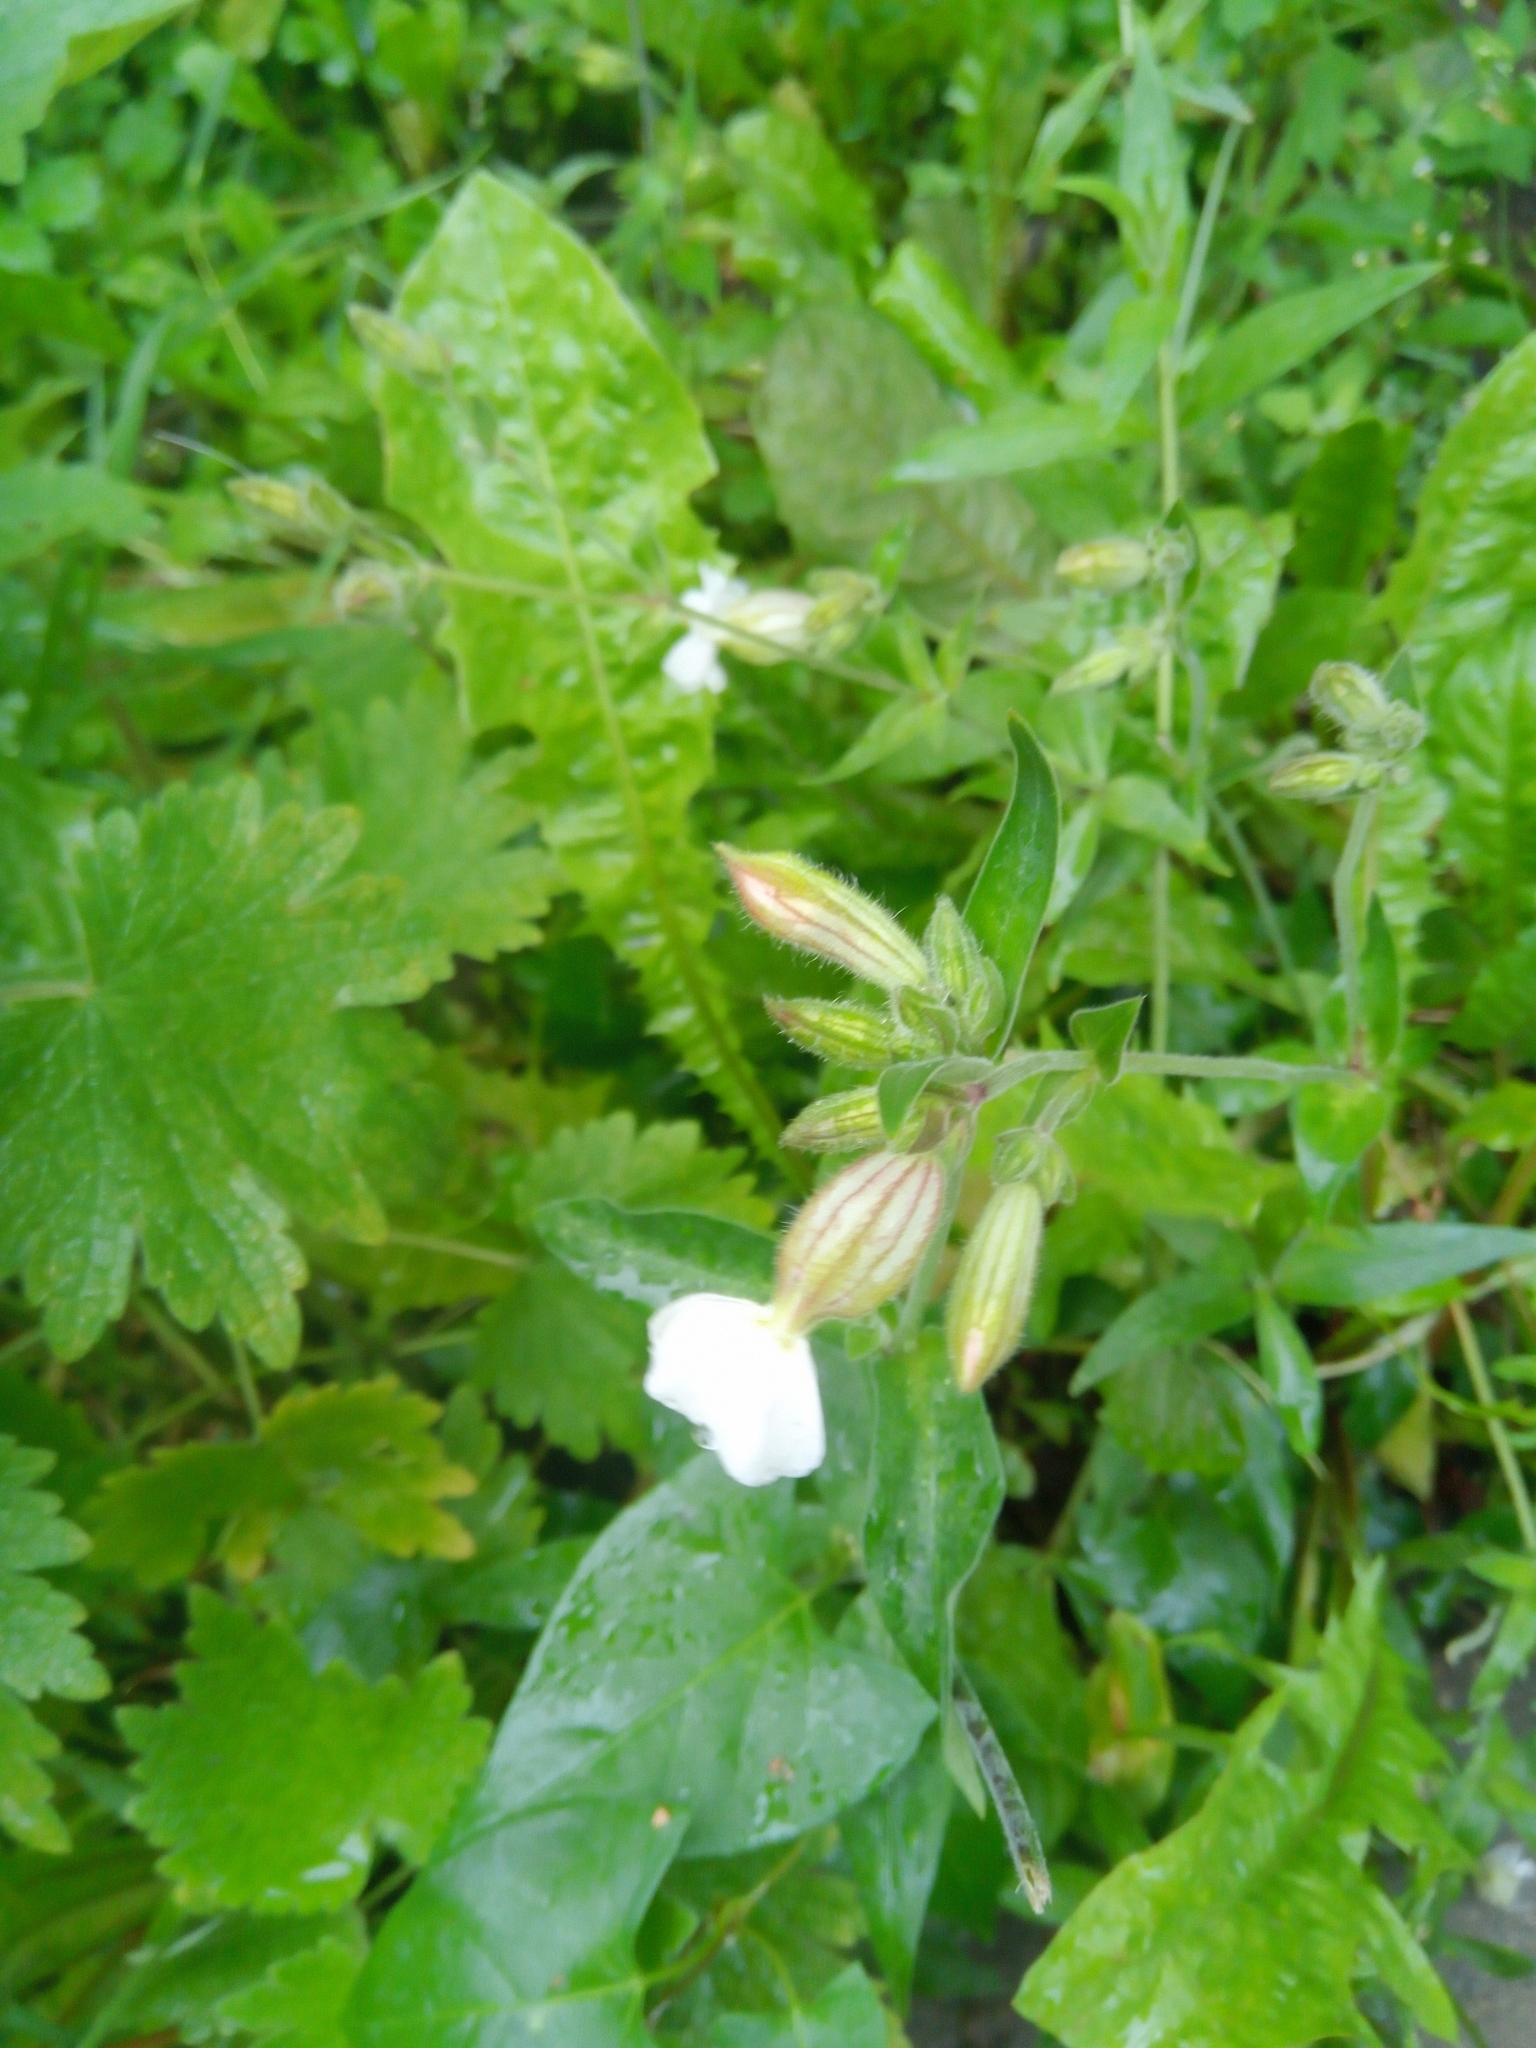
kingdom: Plantae
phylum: Tracheophyta
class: Magnoliopsida
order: Caryophyllales
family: Caryophyllaceae
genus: Silene
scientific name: Silene latifolia
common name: White campion
